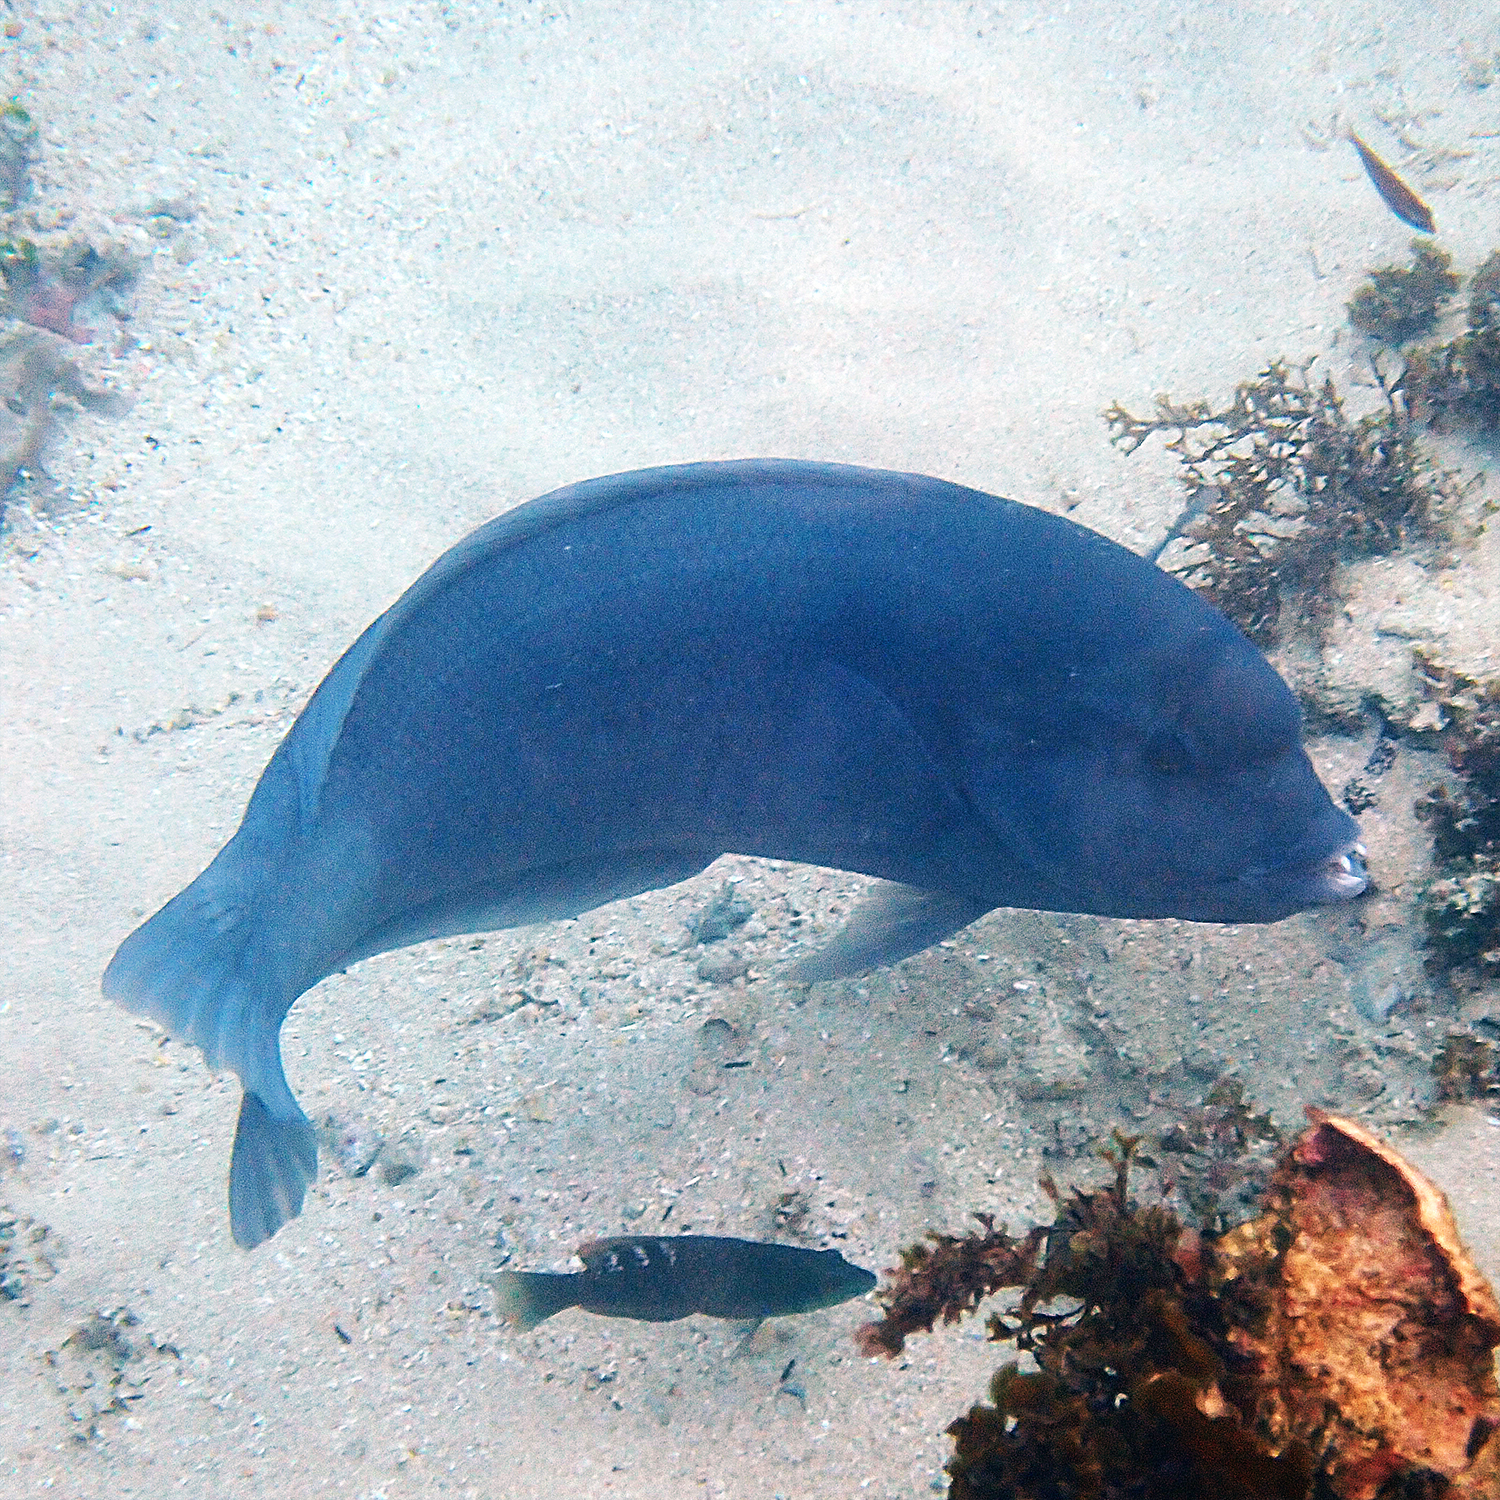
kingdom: Animalia
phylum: Chordata
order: Perciformes
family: Labridae
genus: Coris
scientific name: Coris bulbifrons
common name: Doubleheader
